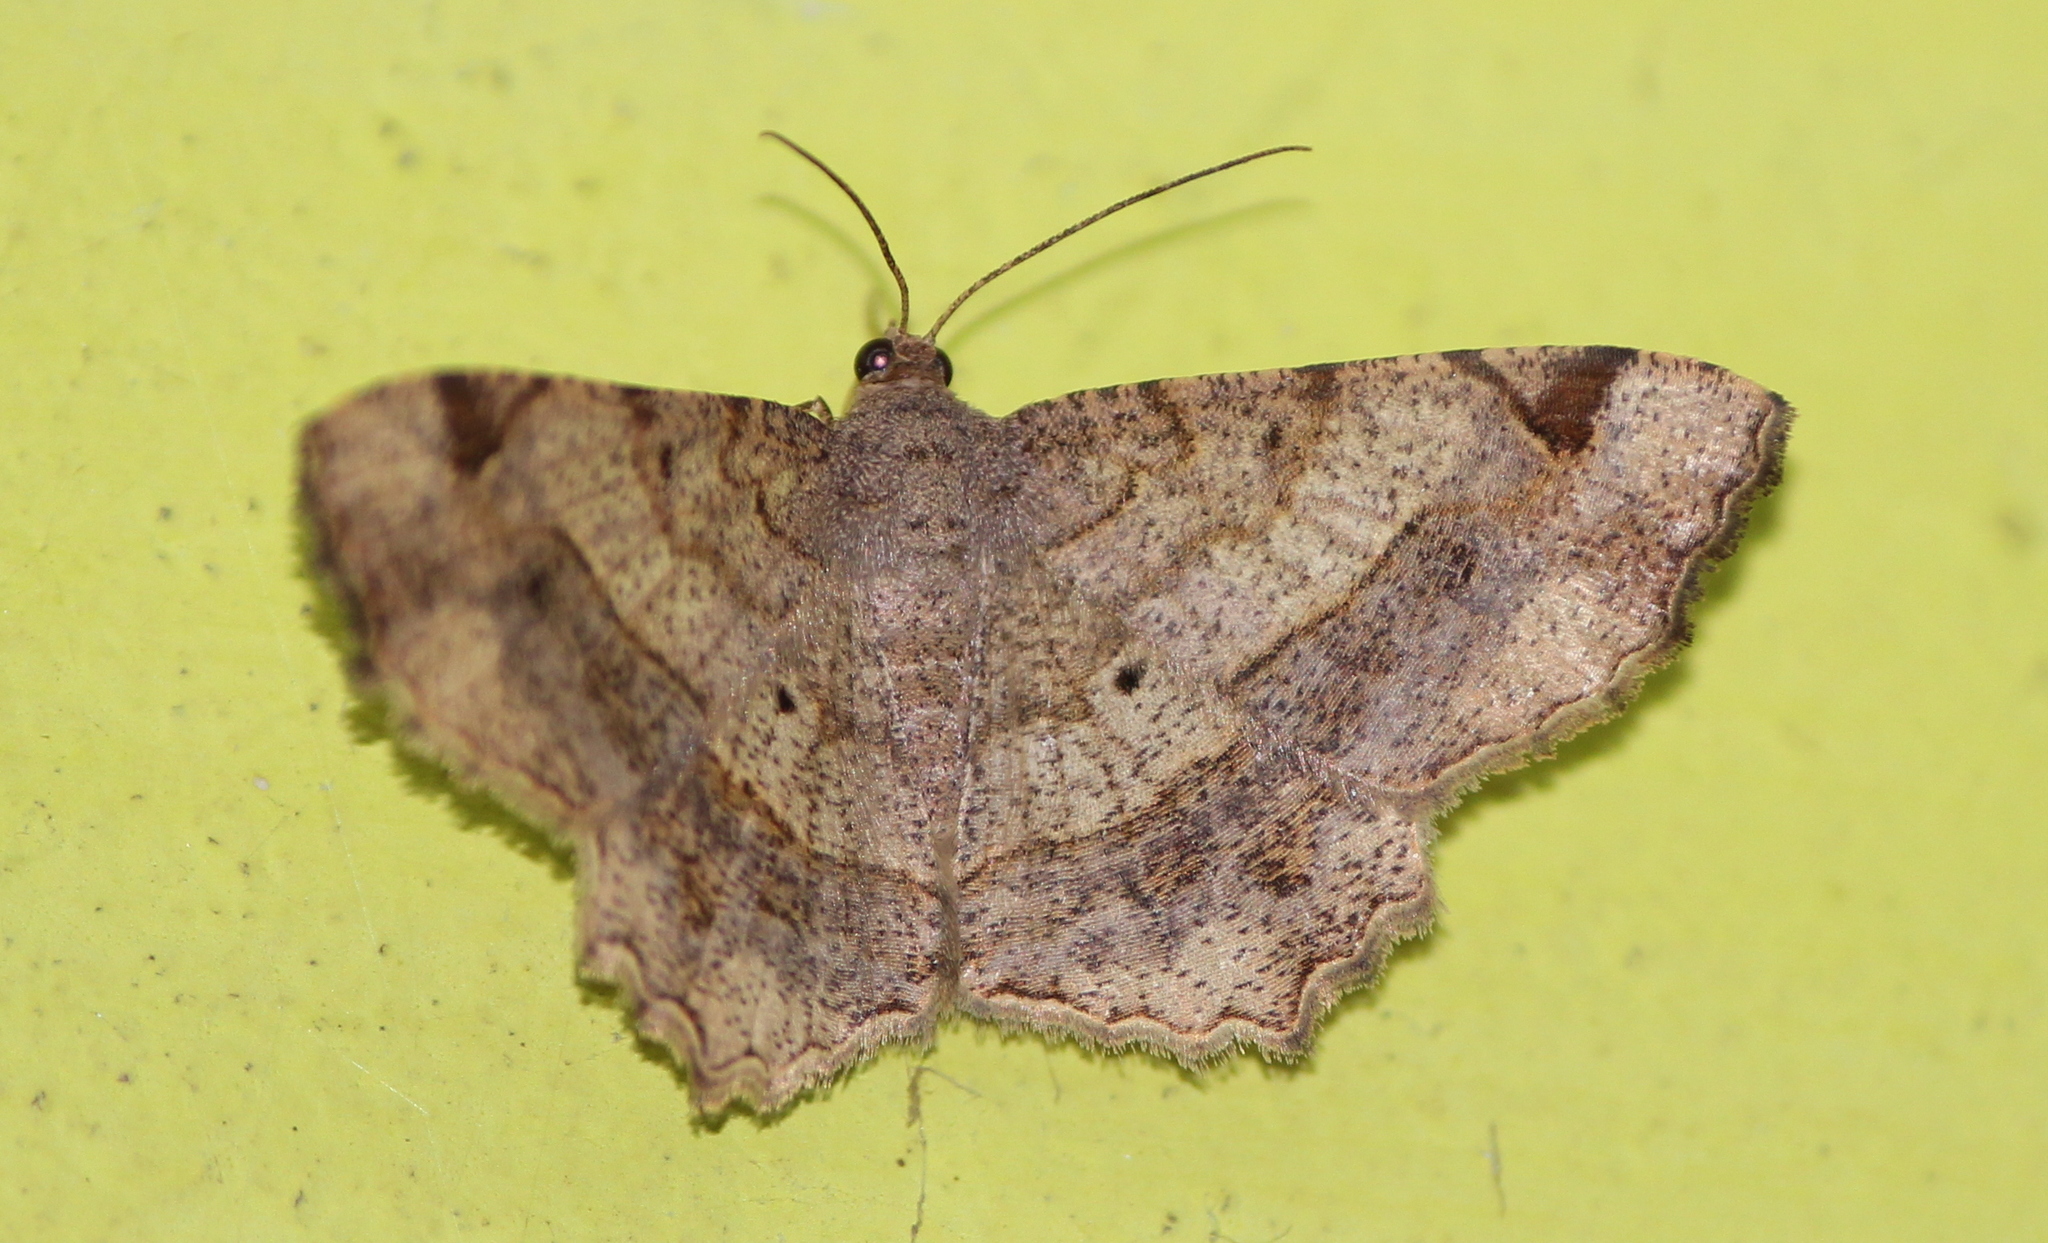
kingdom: Animalia
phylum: Arthropoda
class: Insecta
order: Lepidoptera
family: Geometridae
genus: Chiasmia
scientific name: Chiasmia emersaria
